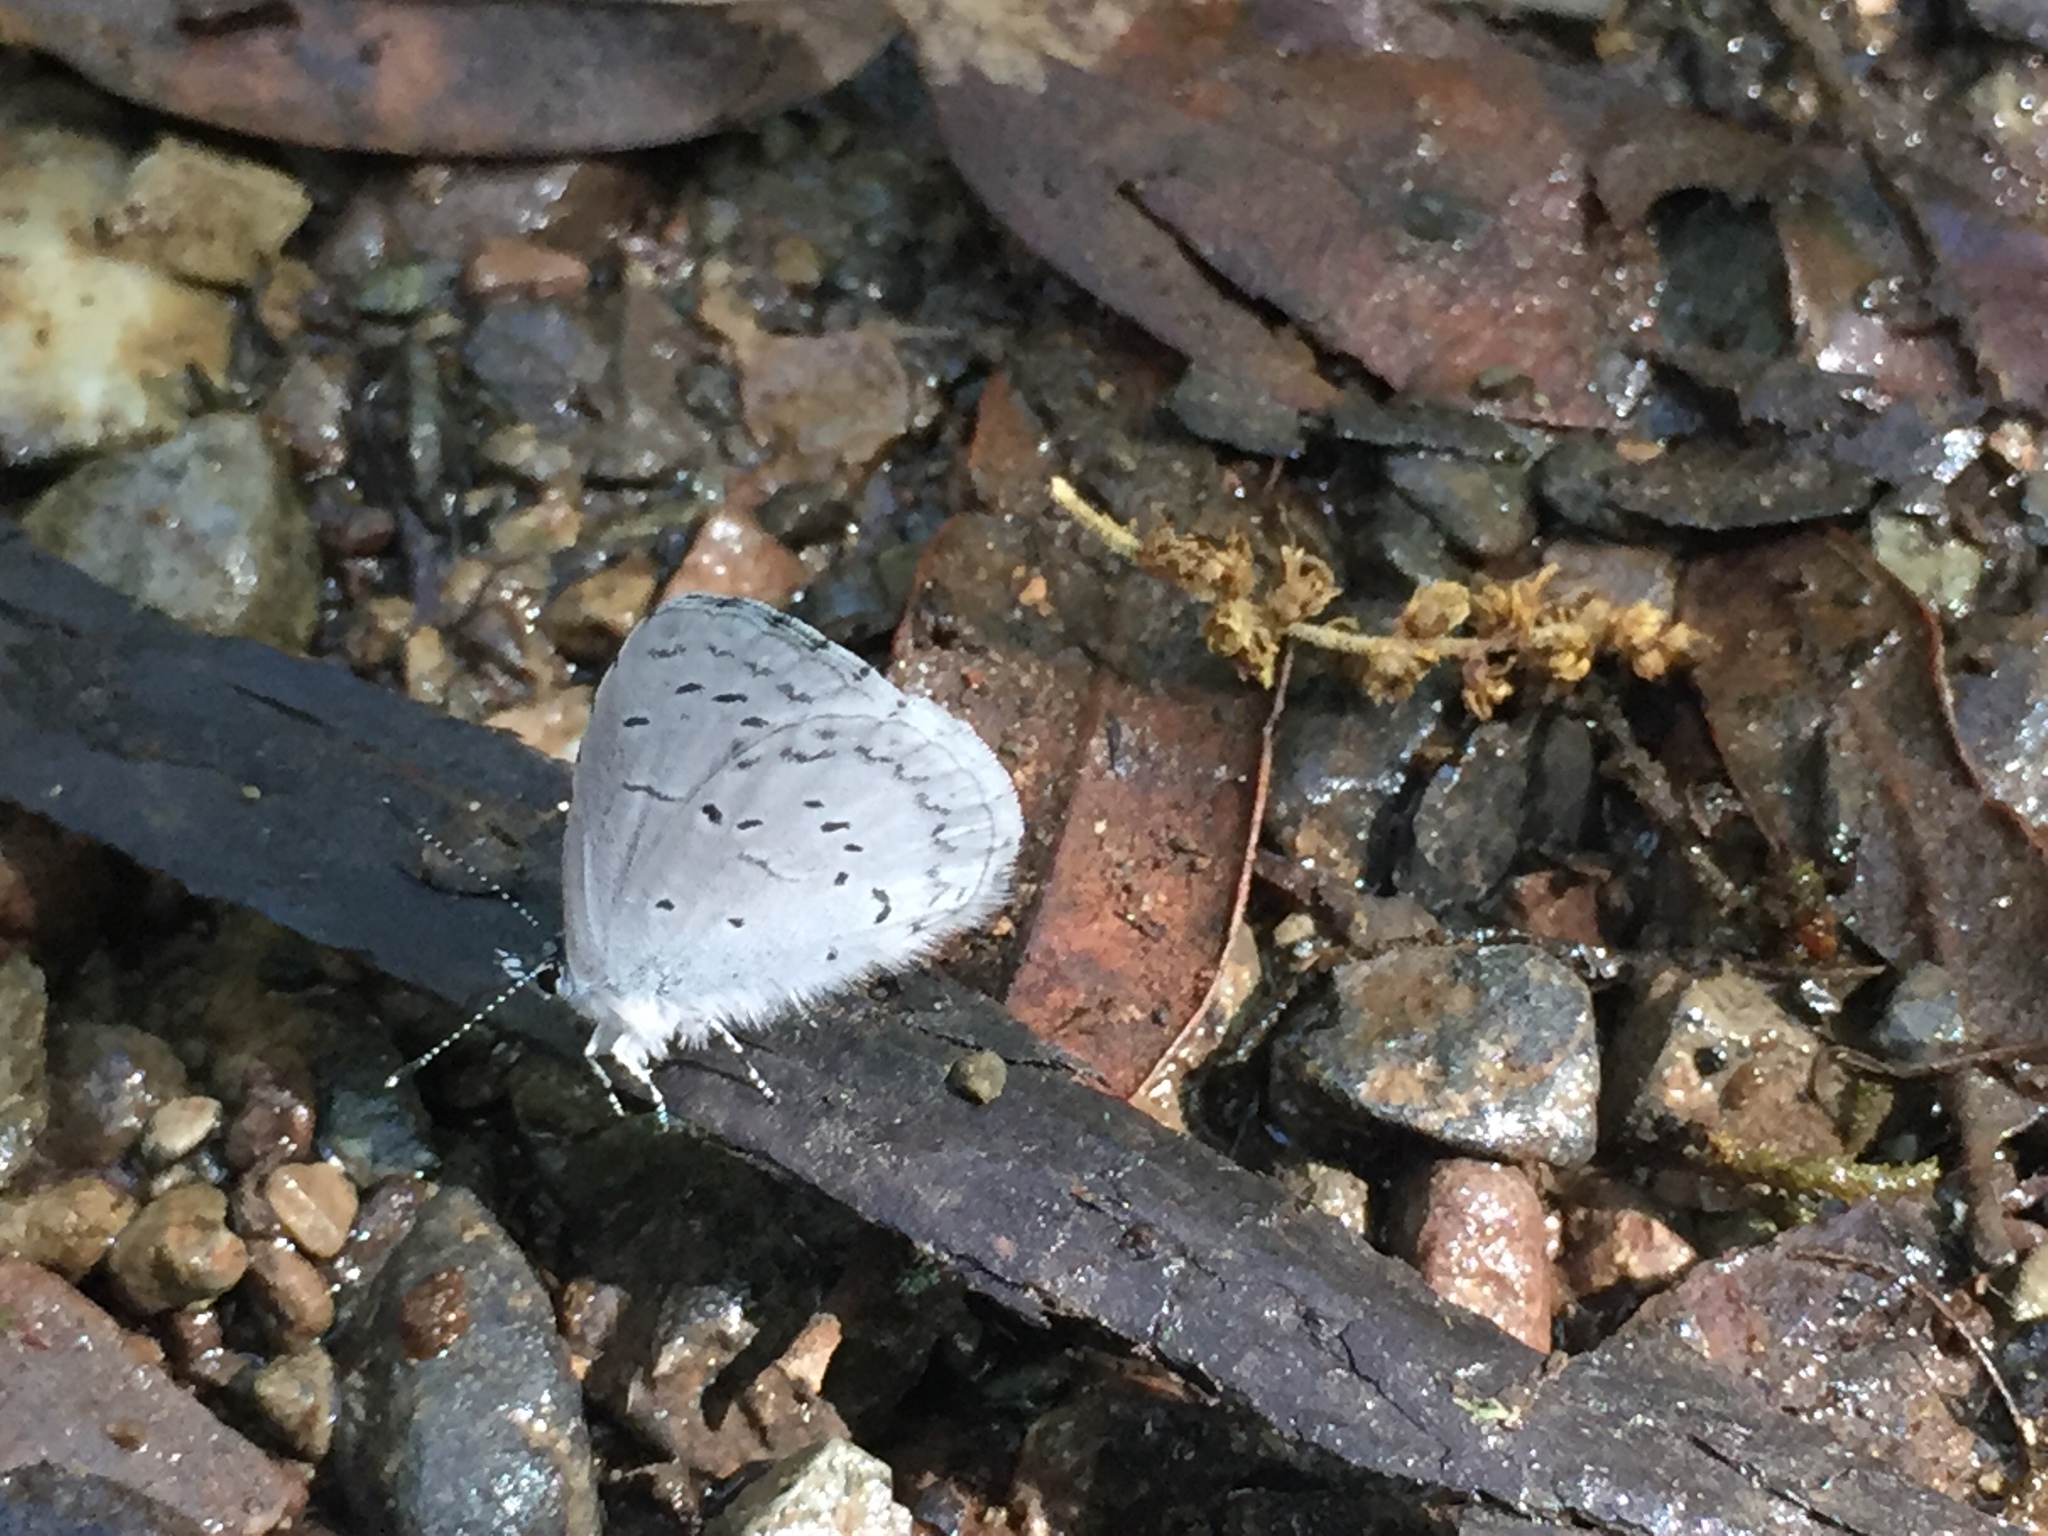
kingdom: Animalia
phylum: Arthropoda
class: Insecta
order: Lepidoptera
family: Lycaenidae
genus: Celastrina
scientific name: Celastrina ladon
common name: Spring azure
